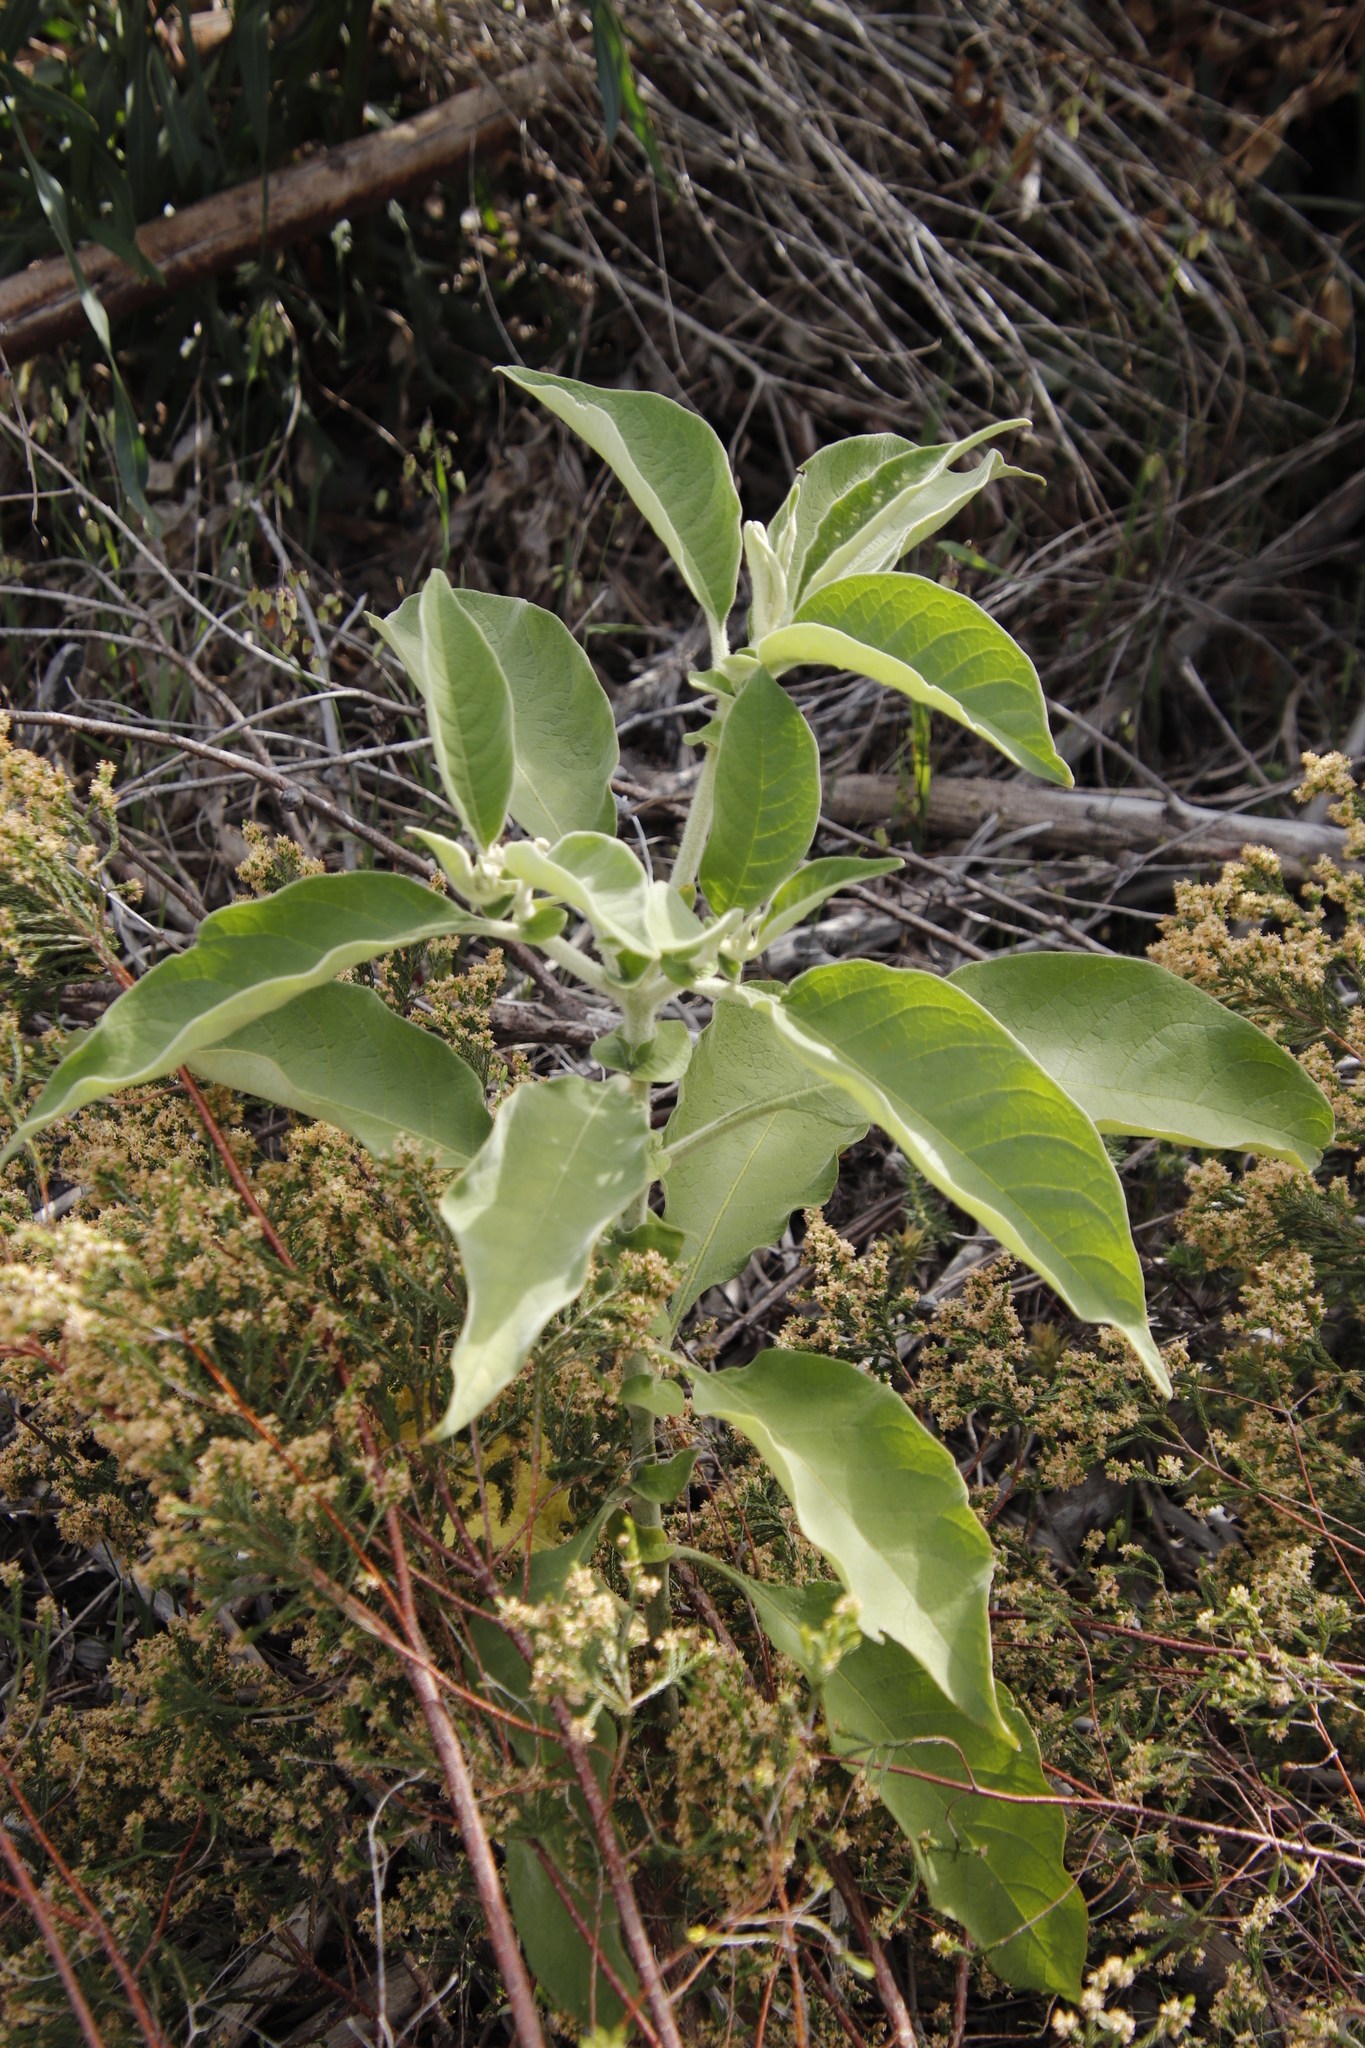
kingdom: Plantae
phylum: Tracheophyta
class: Magnoliopsida
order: Solanales
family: Solanaceae
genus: Solanum
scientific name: Solanum mauritianum
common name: Earleaf nightshade
